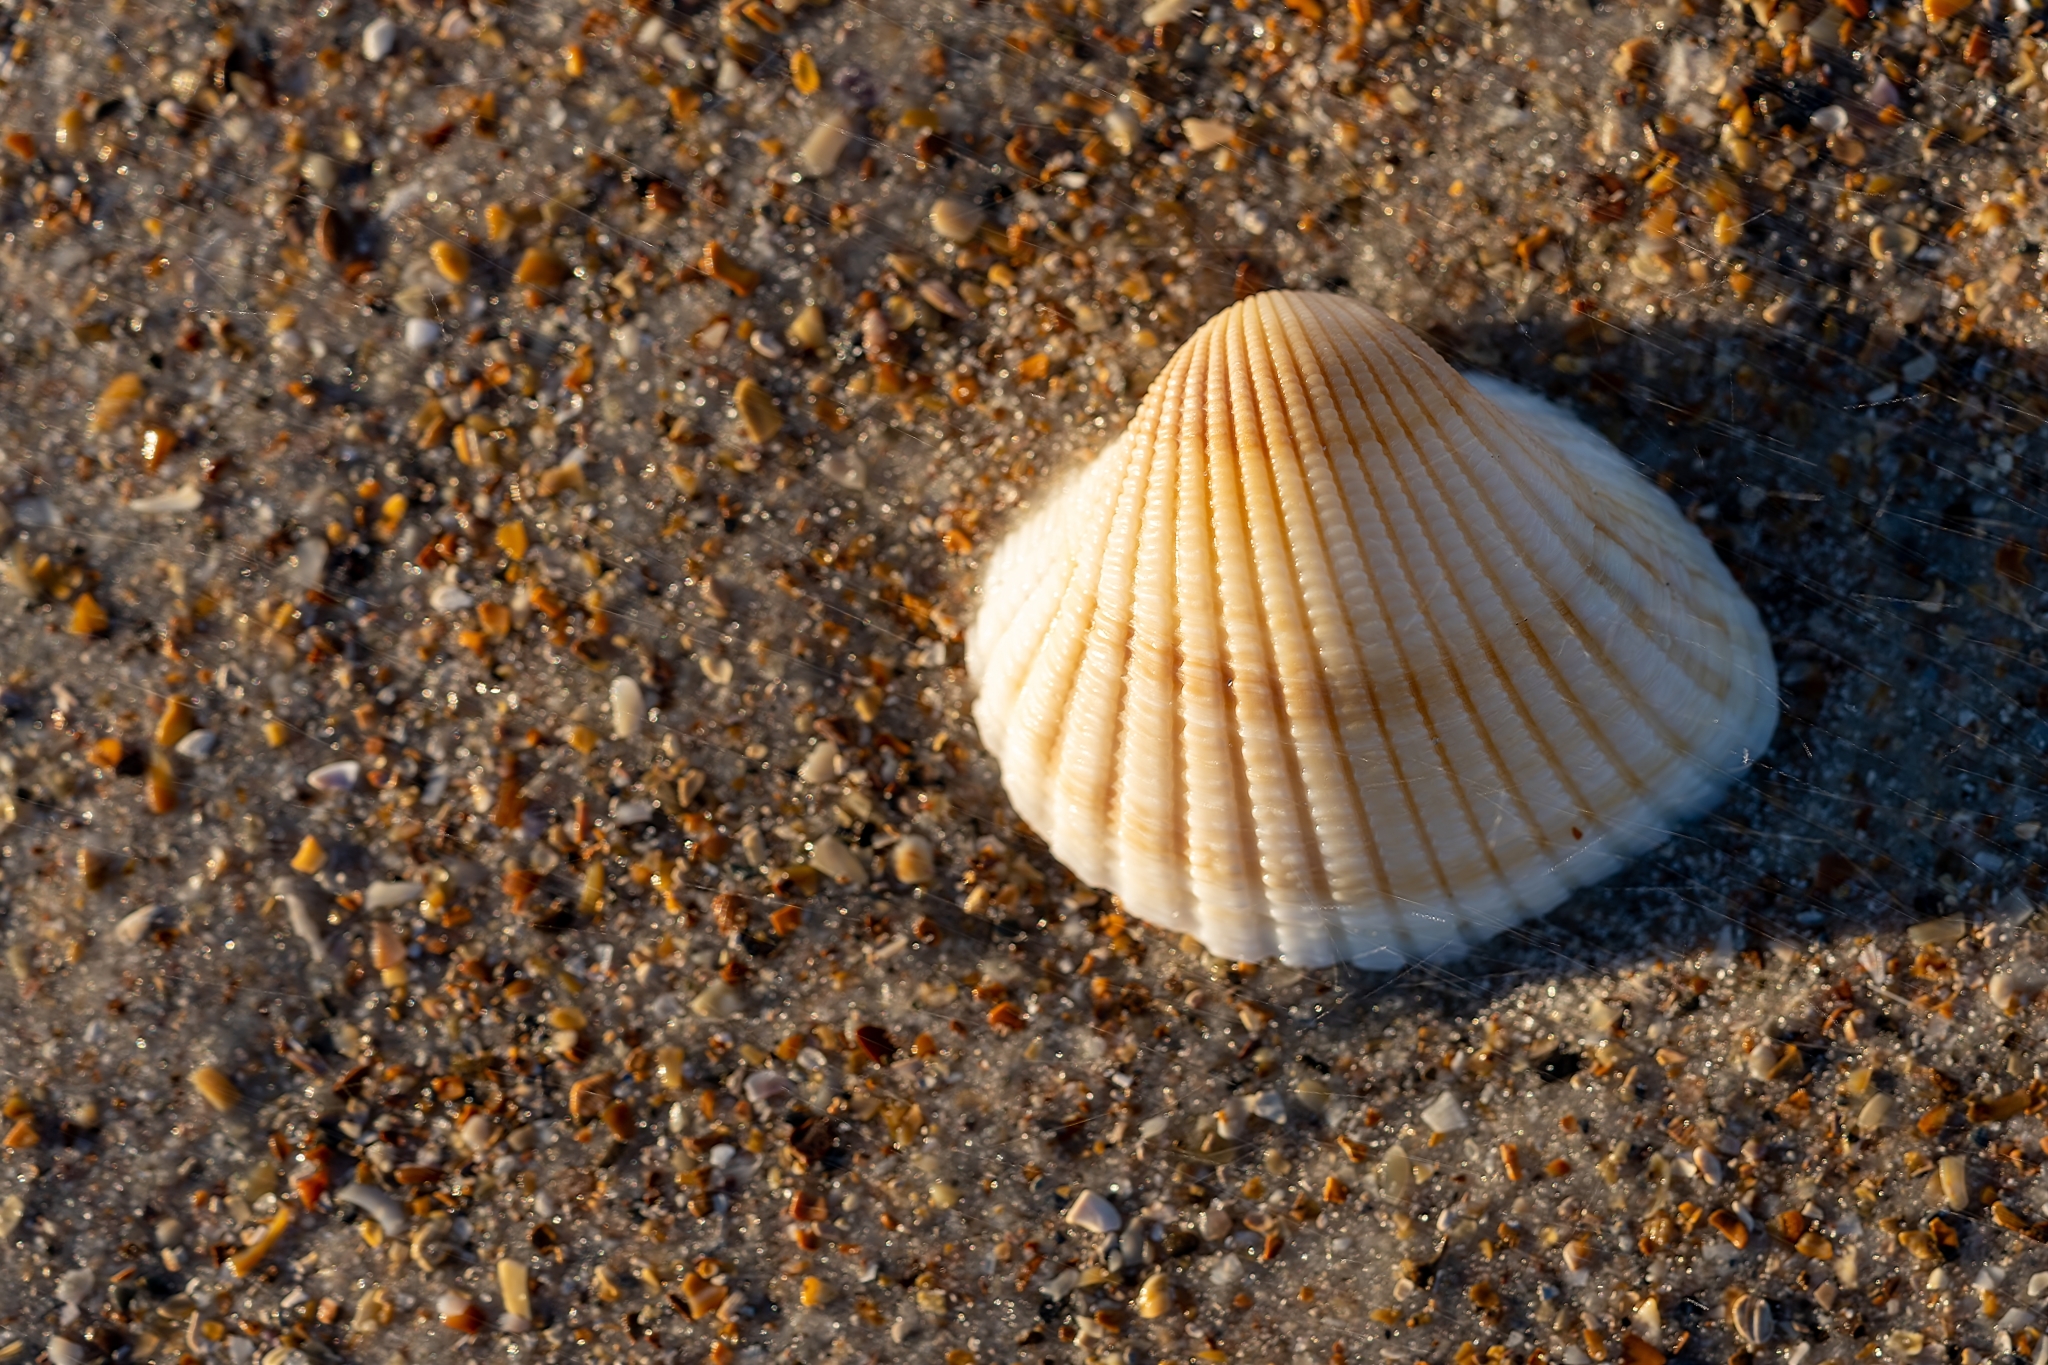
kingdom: Animalia
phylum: Mollusca
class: Bivalvia
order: Arcida
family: Arcidae
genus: Anadara
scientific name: Anadara brasiliana
